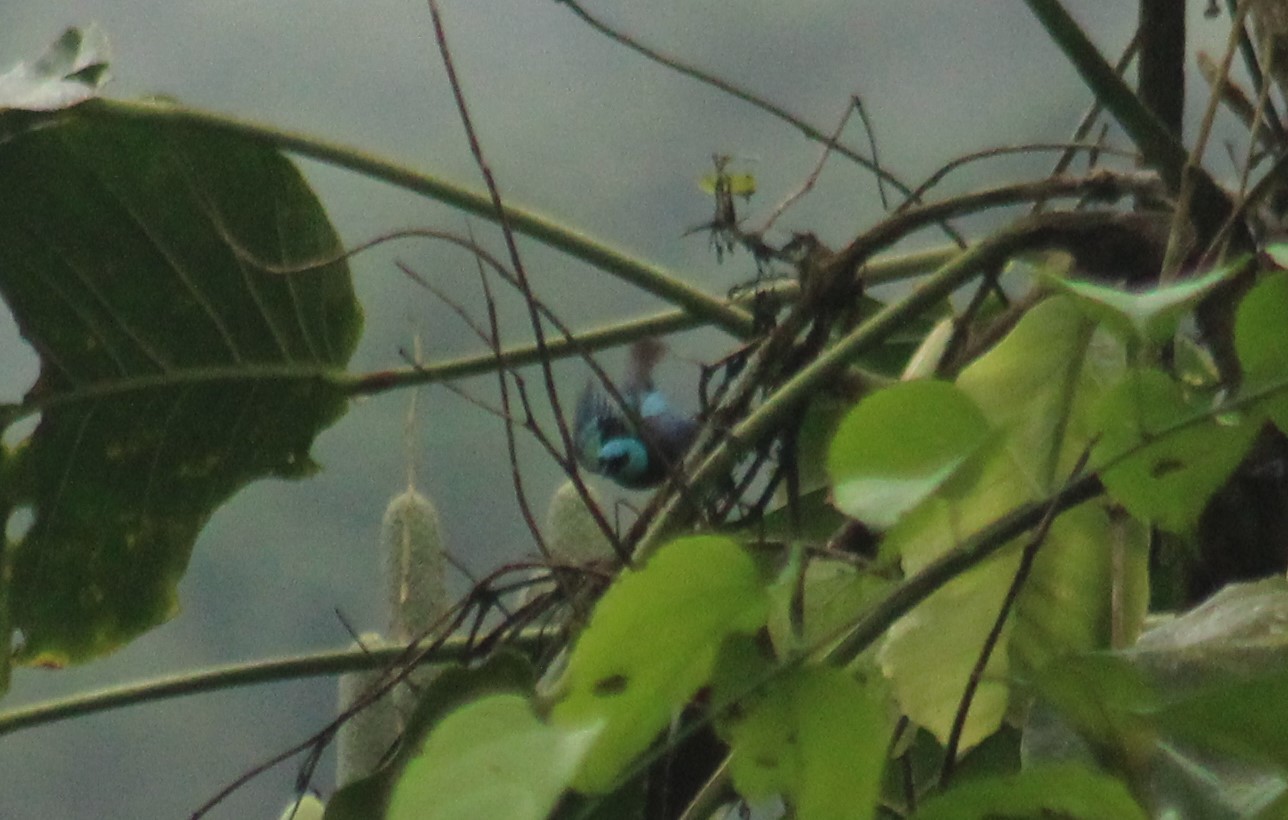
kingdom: Animalia
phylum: Chordata
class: Aves
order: Passeriformes
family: Thraupidae
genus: Stilpnia
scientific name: Stilpnia cyanicollis
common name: Blue-necked tanager
